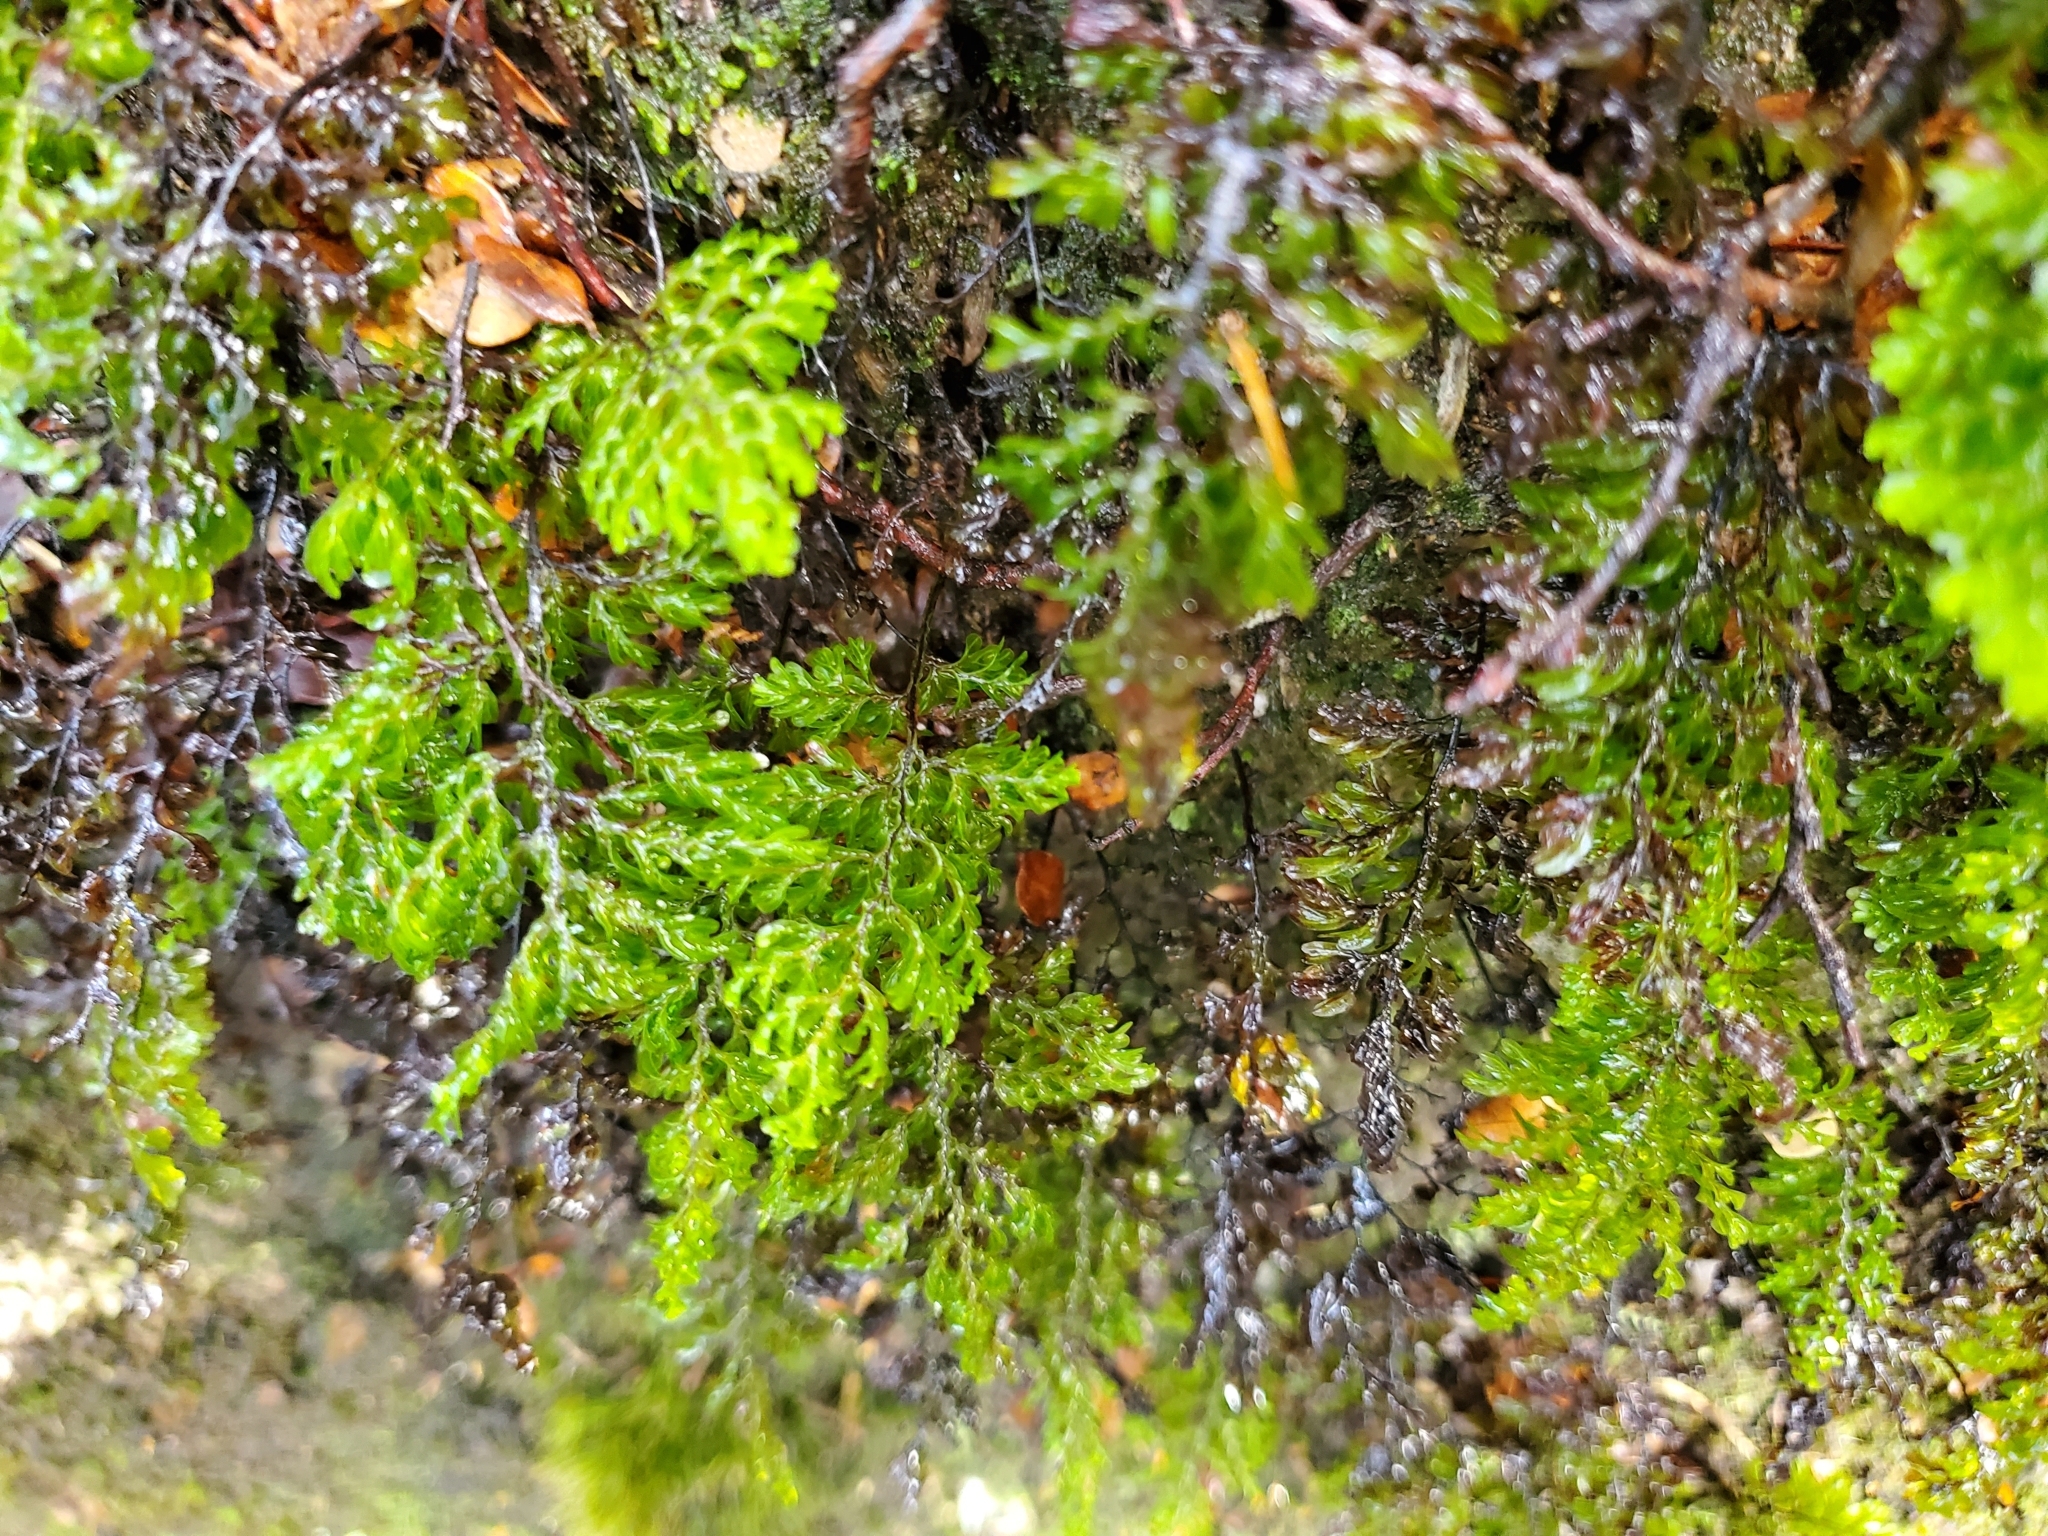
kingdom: Plantae
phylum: Tracheophyta
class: Polypodiopsida
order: Hymenophyllales
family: Hymenophyllaceae
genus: Hymenophyllum
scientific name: Hymenophyllum sanguinolentum
